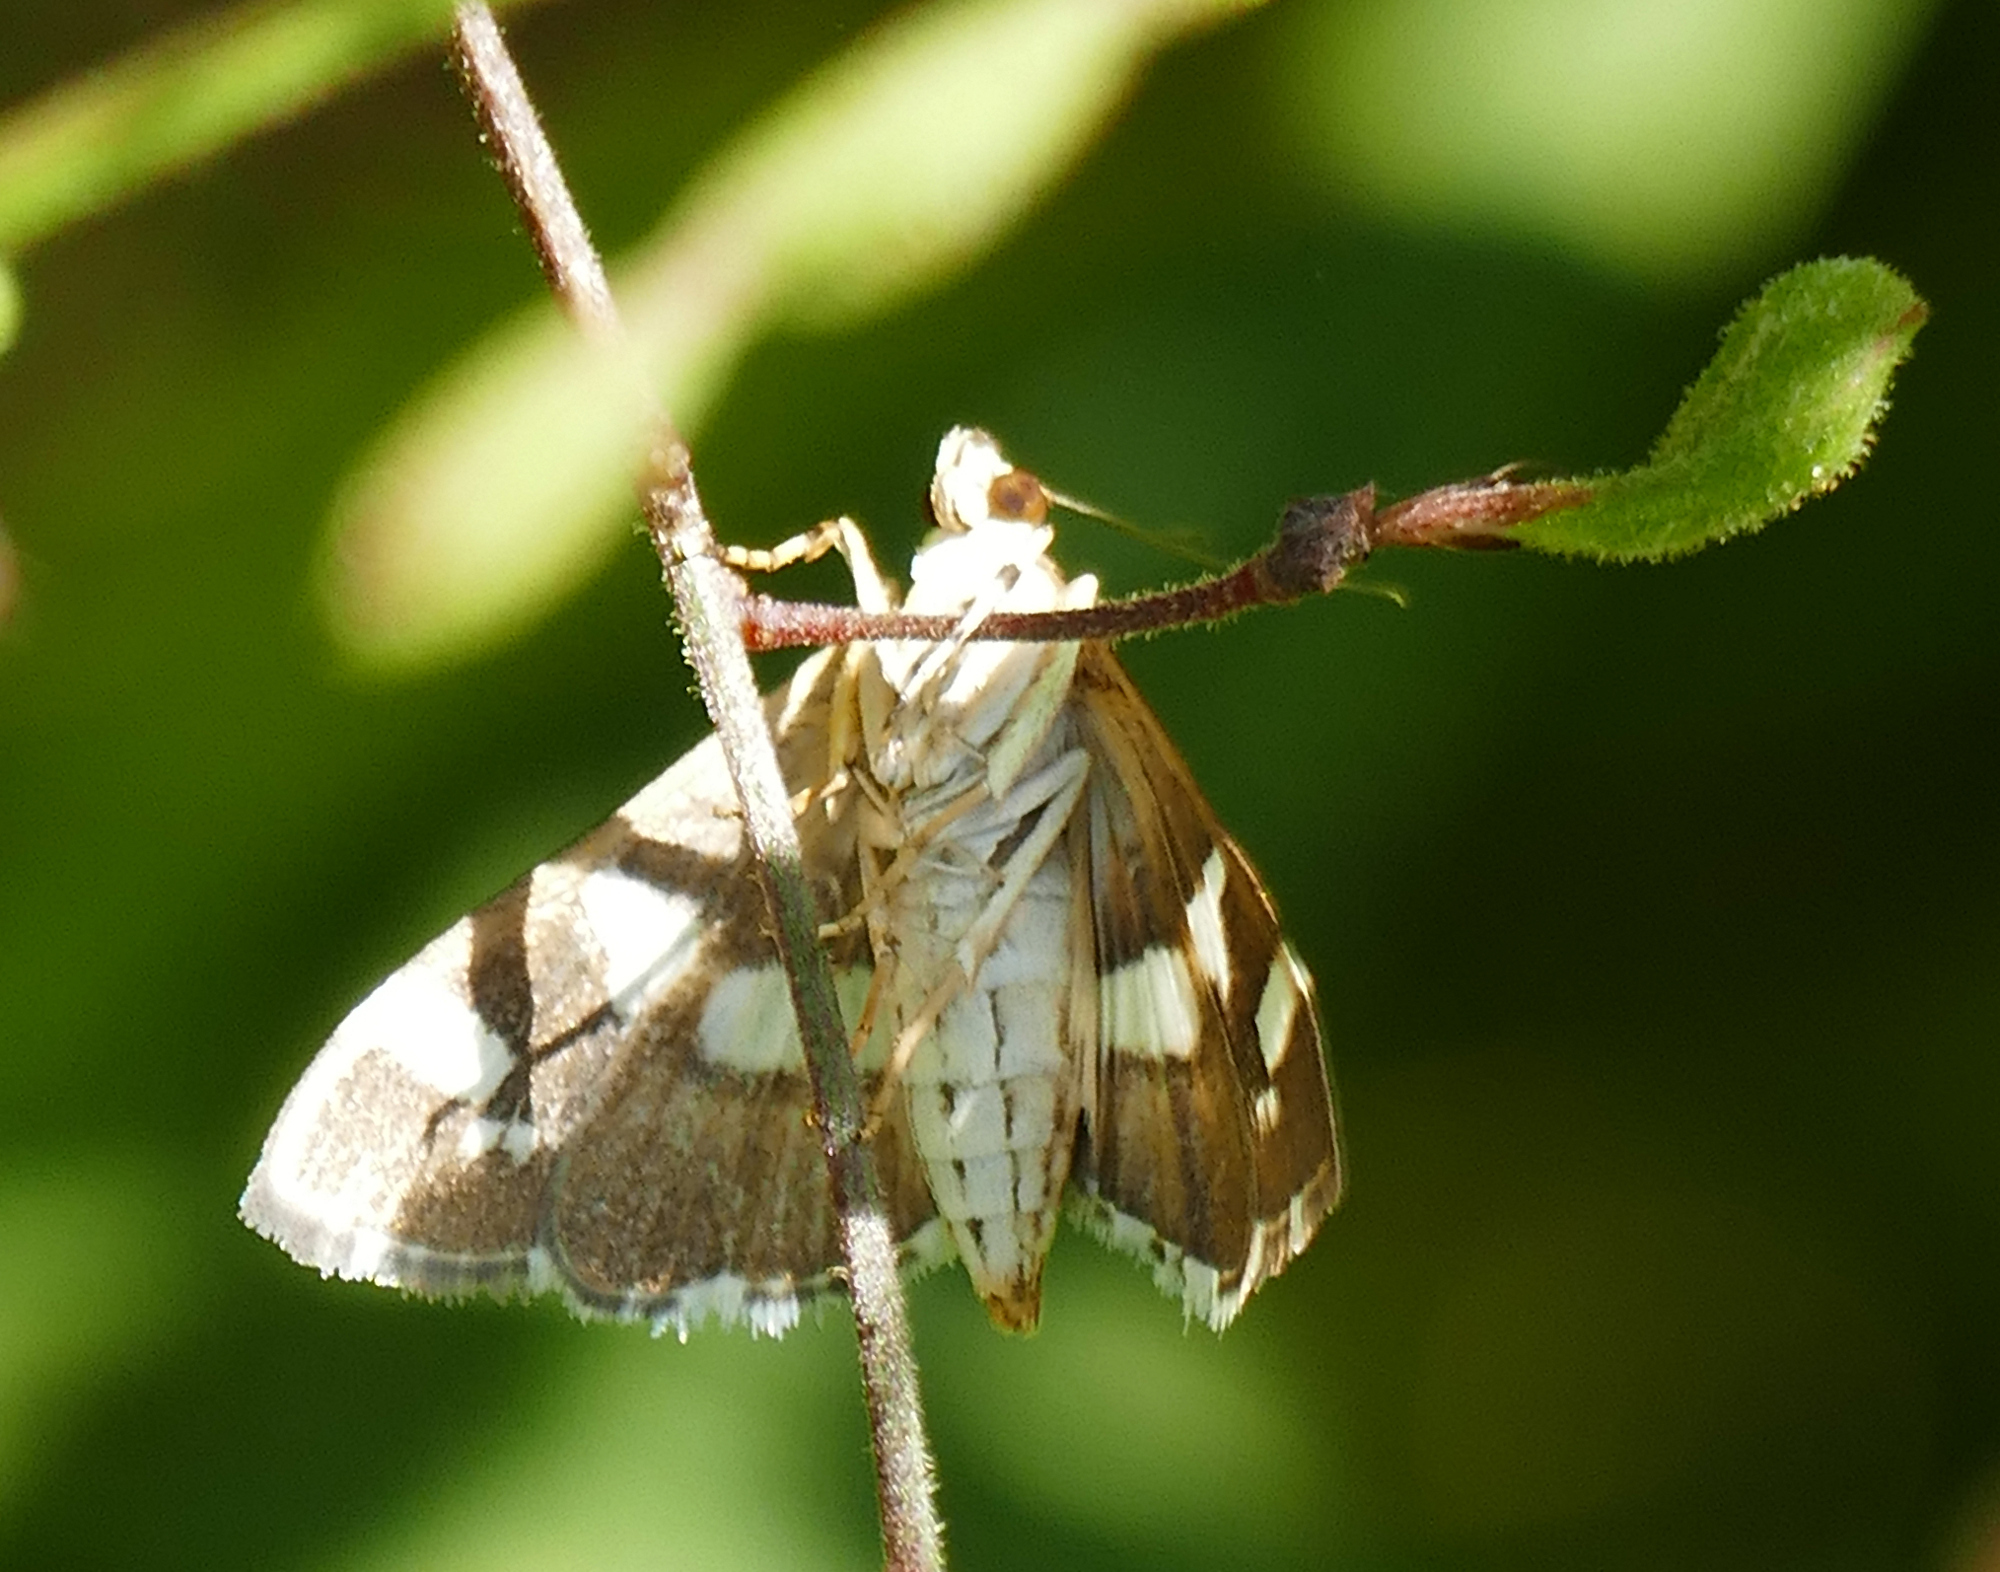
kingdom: Animalia
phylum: Arthropoda
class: Insecta
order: Lepidoptera
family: Crambidae
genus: Spoladea
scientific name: Spoladea recurvalis
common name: Beet webworm moth
